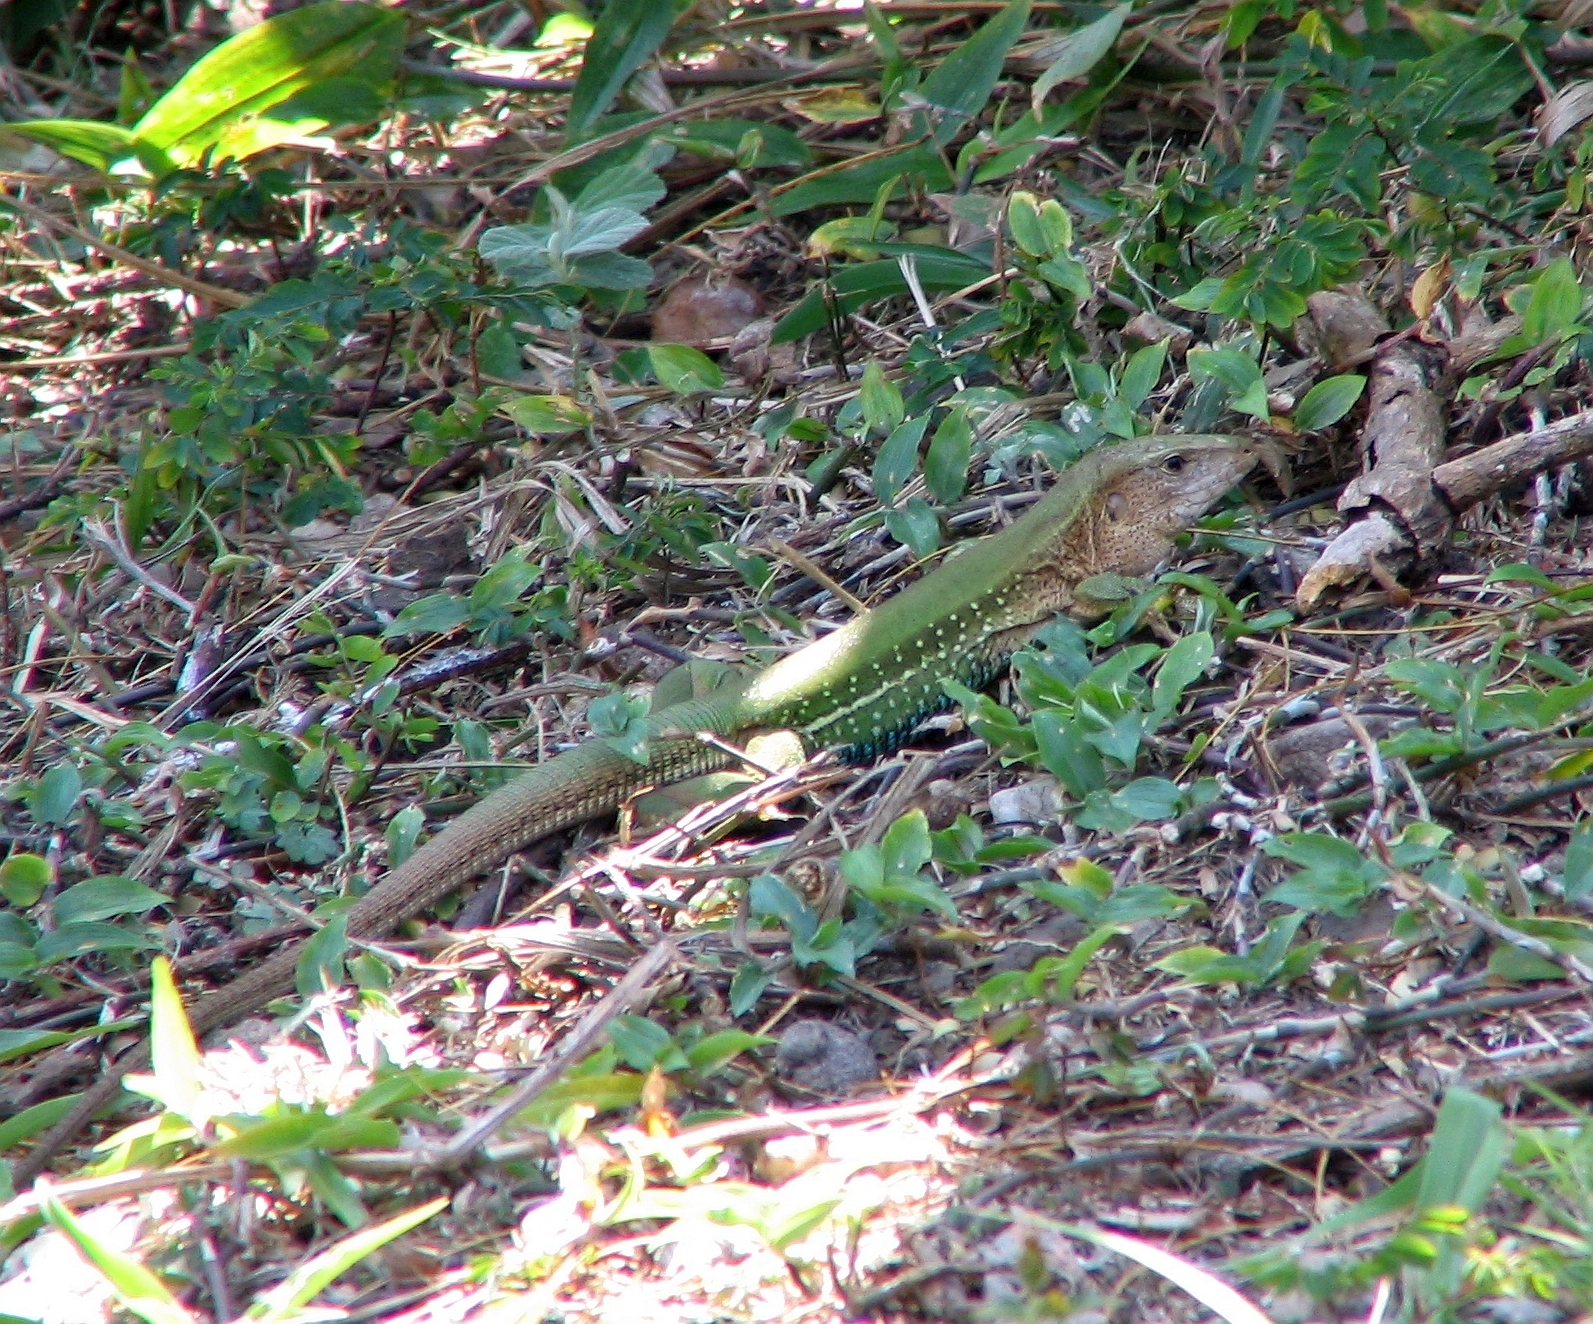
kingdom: Animalia
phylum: Chordata
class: Squamata
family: Teiidae
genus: Ameiva
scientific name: Ameiva ameiva
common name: Giant ameiva
